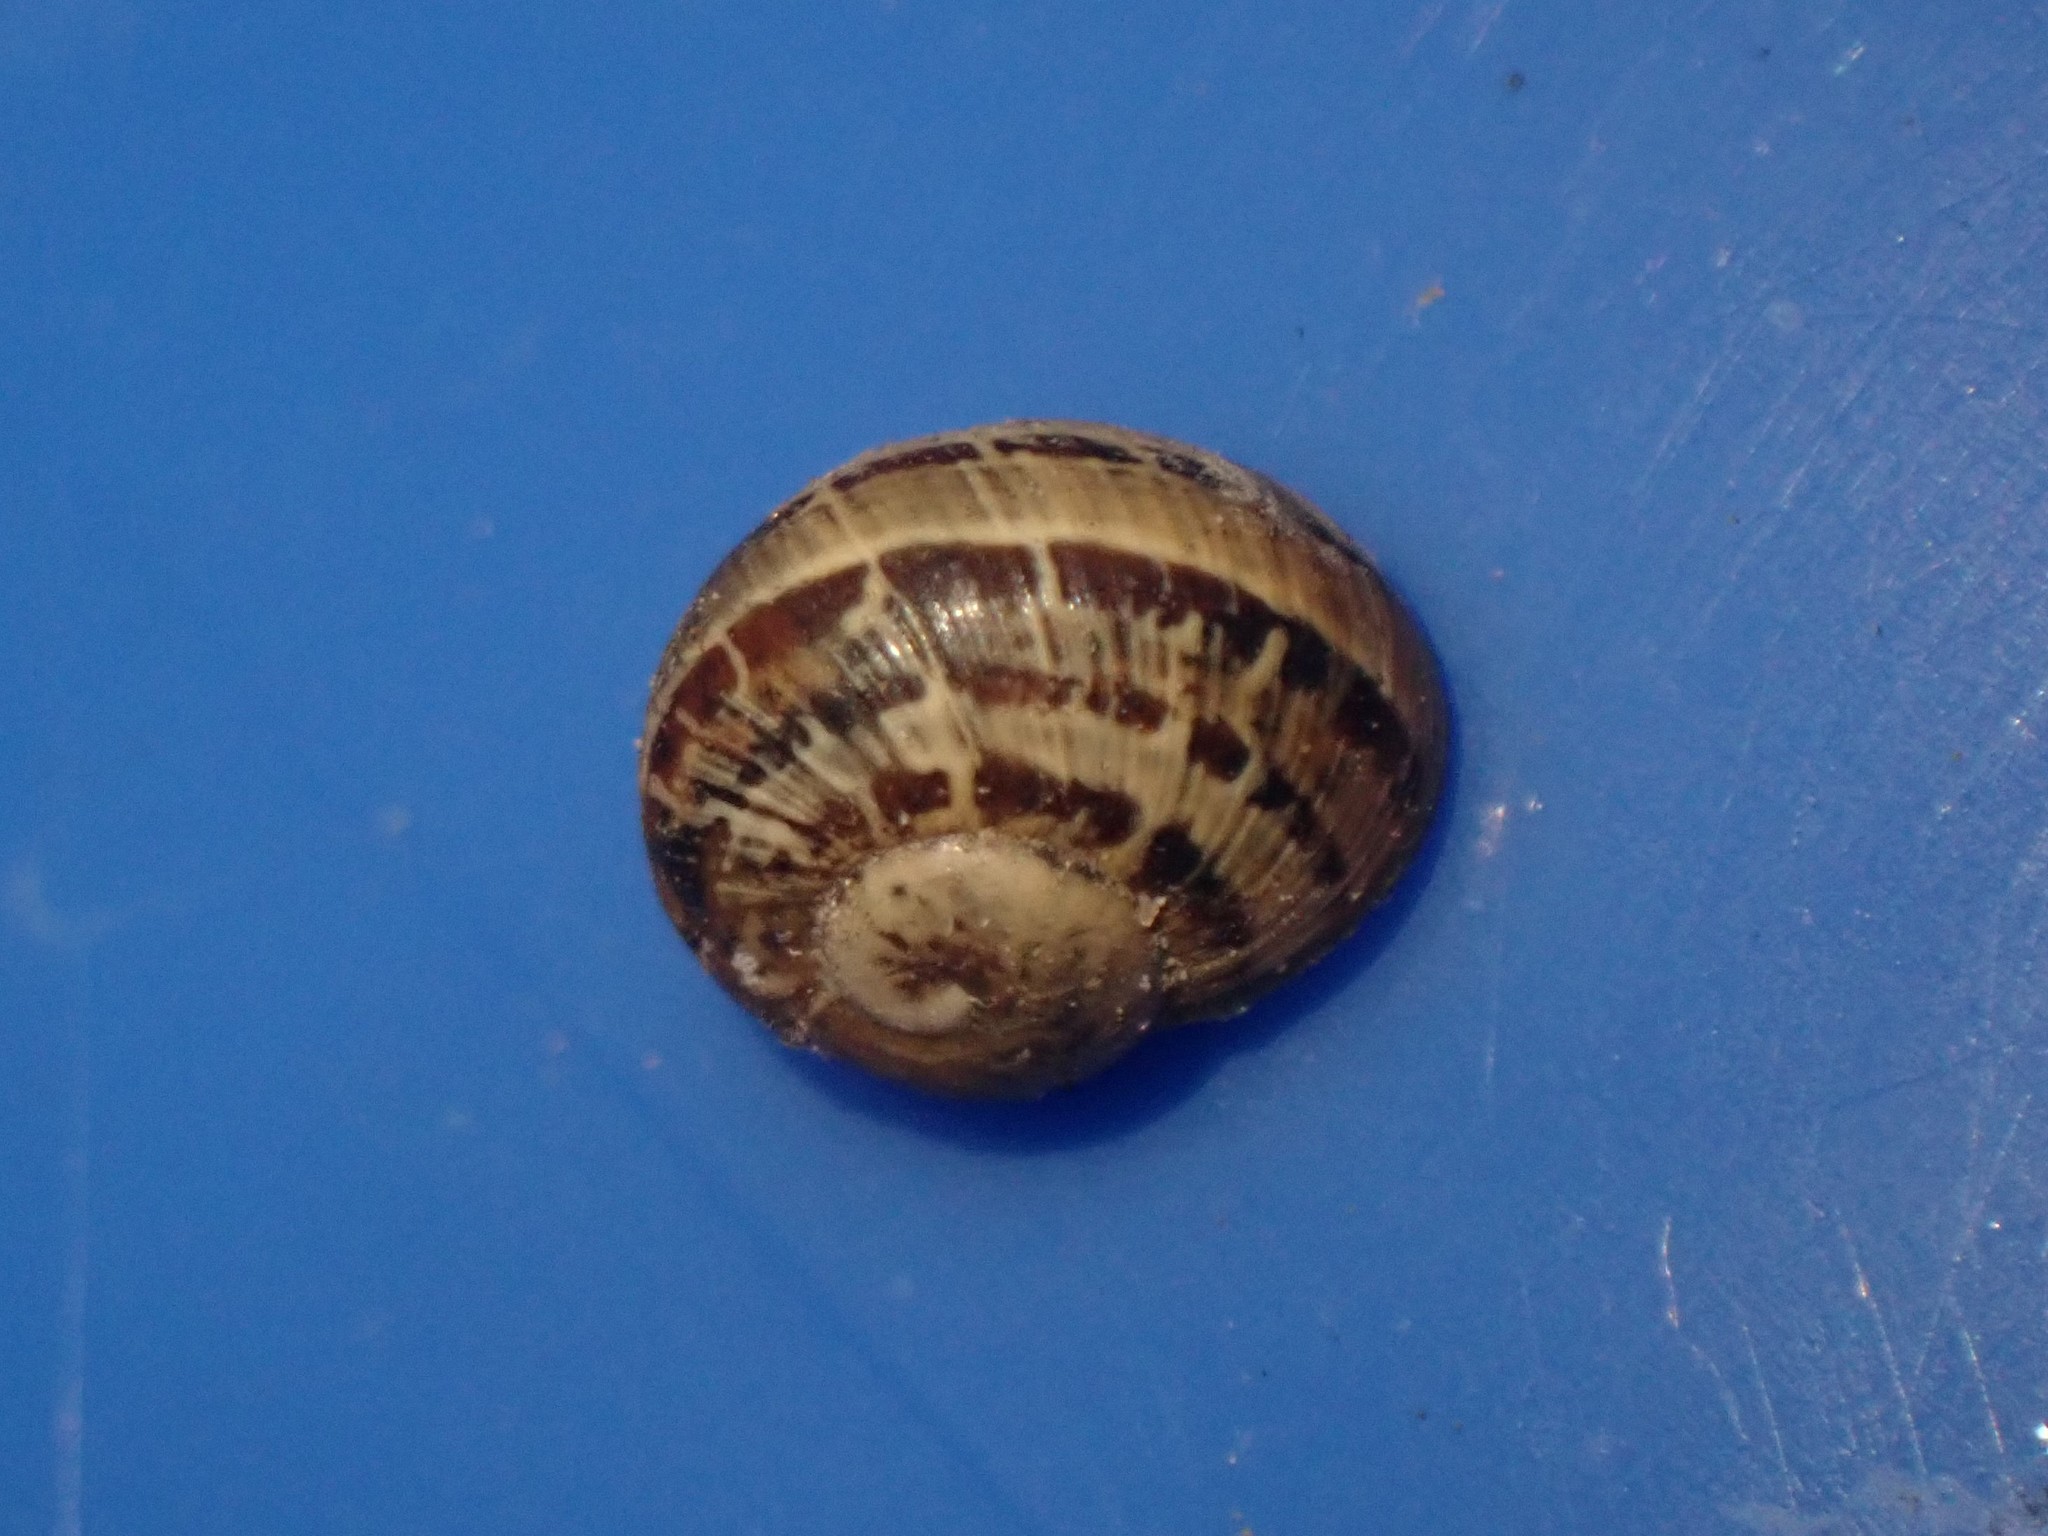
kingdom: Animalia
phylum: Mollusca
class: Gastropoda
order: Stylommatophora
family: Helicidae
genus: Cornu
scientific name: Cornu aspersum
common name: Brown garden snail
